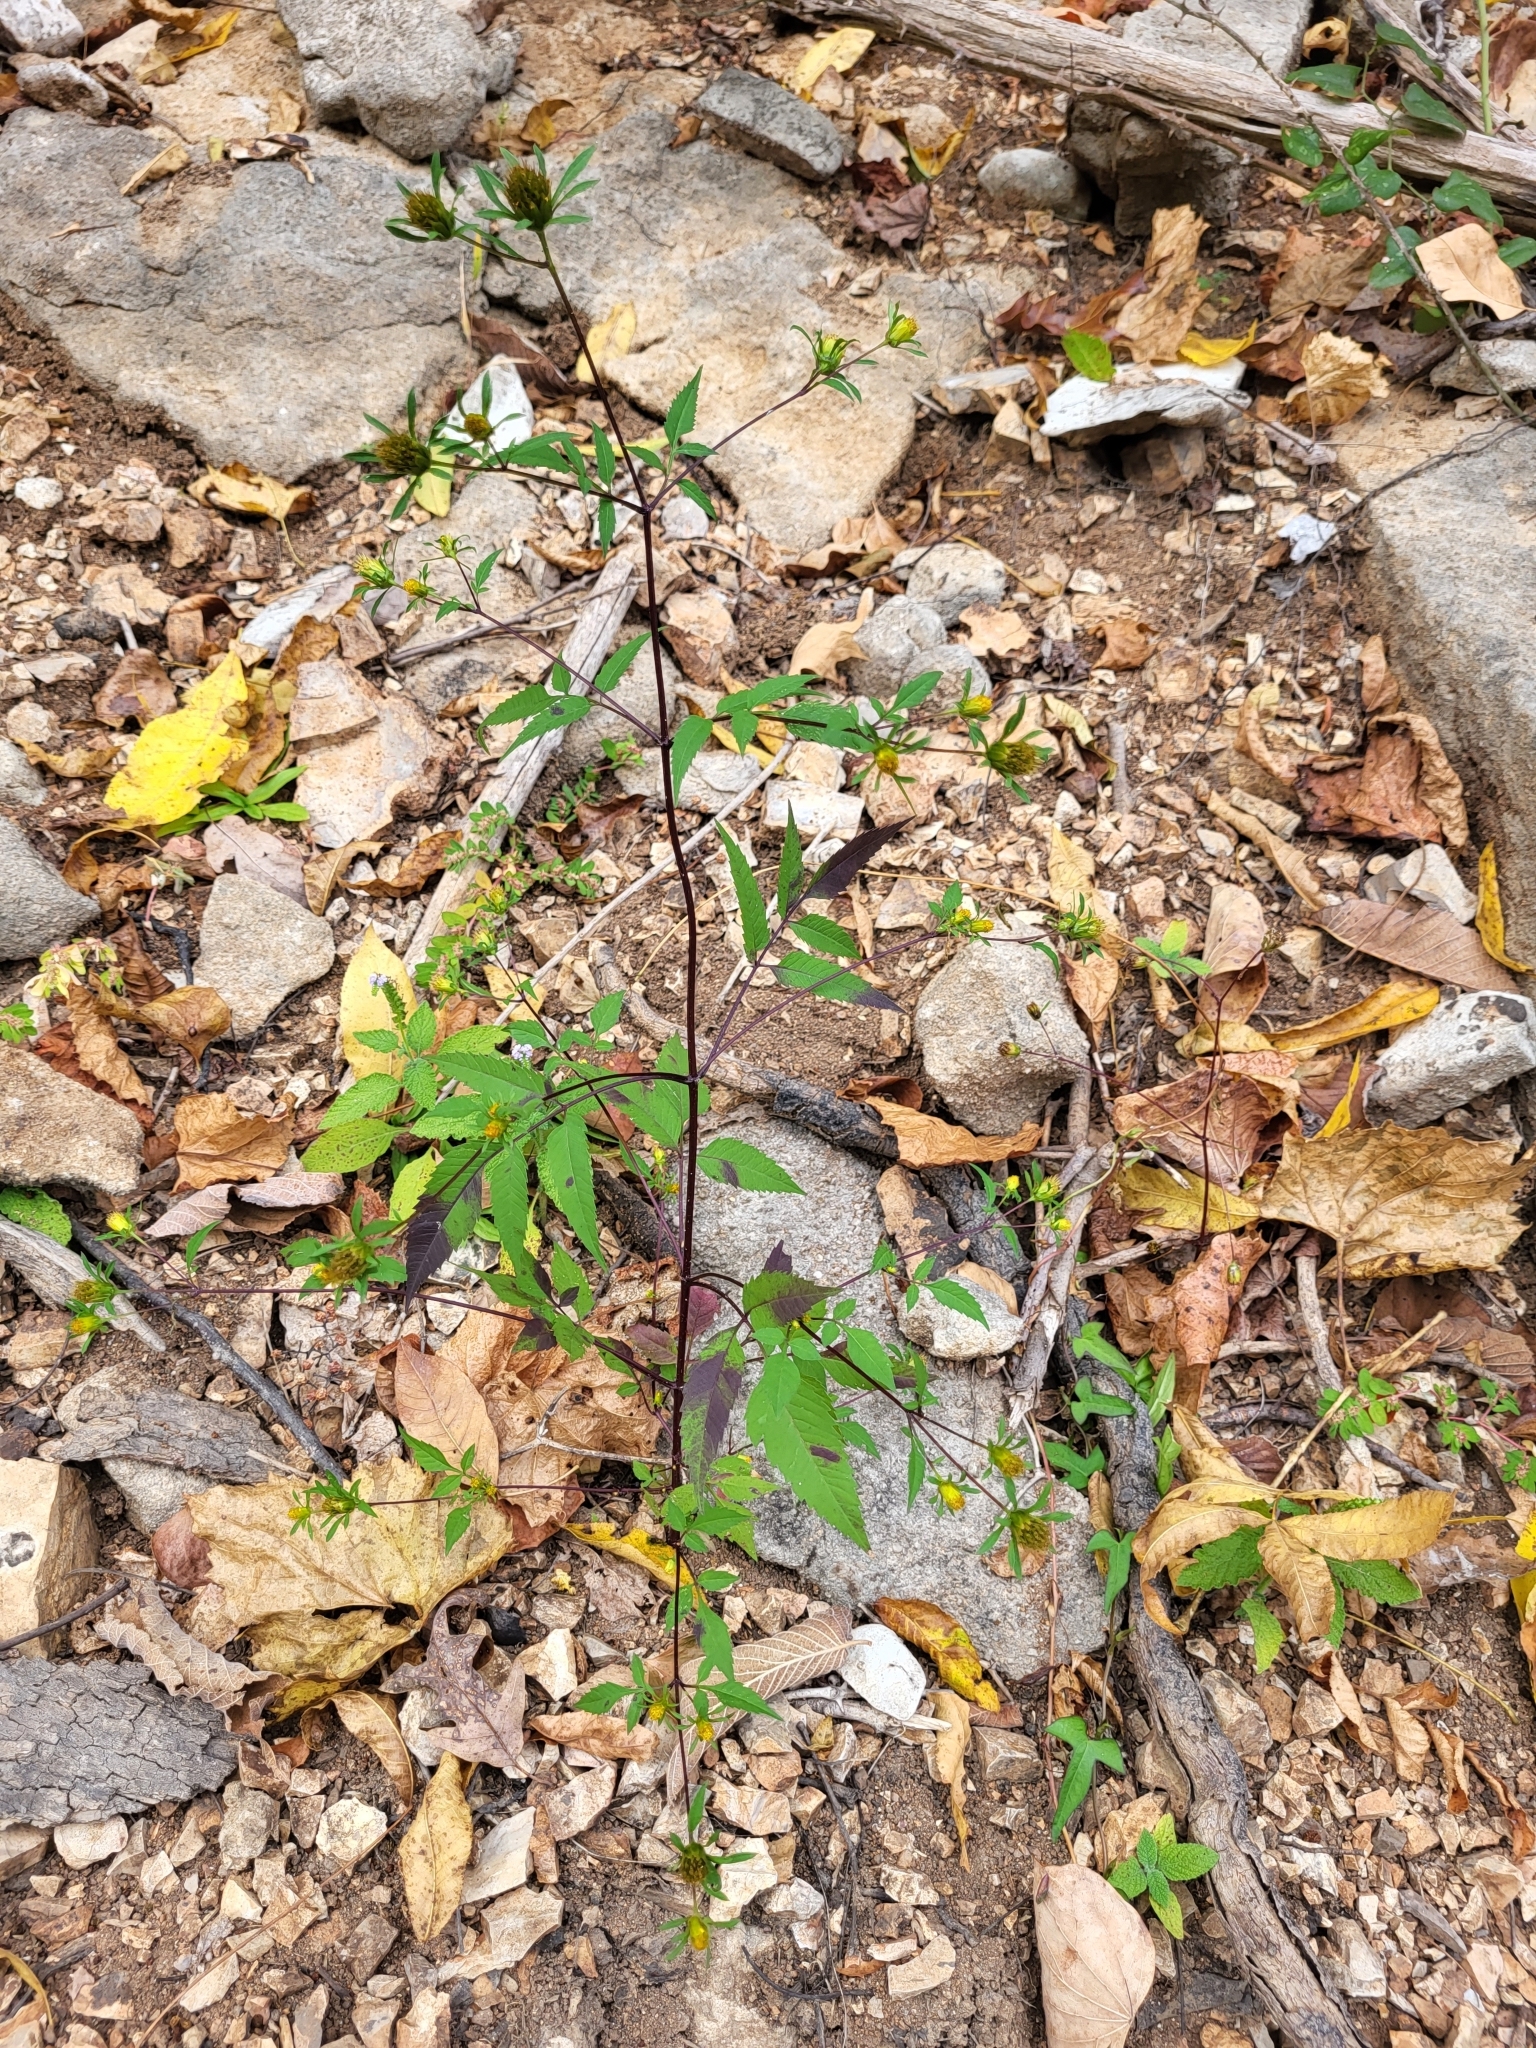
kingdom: Plantae
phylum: Tracheophyta
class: Magnoliopsida
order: Asterales
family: Asteraceae
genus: Bidens
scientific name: Bidens frondosa
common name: Beggarticks
